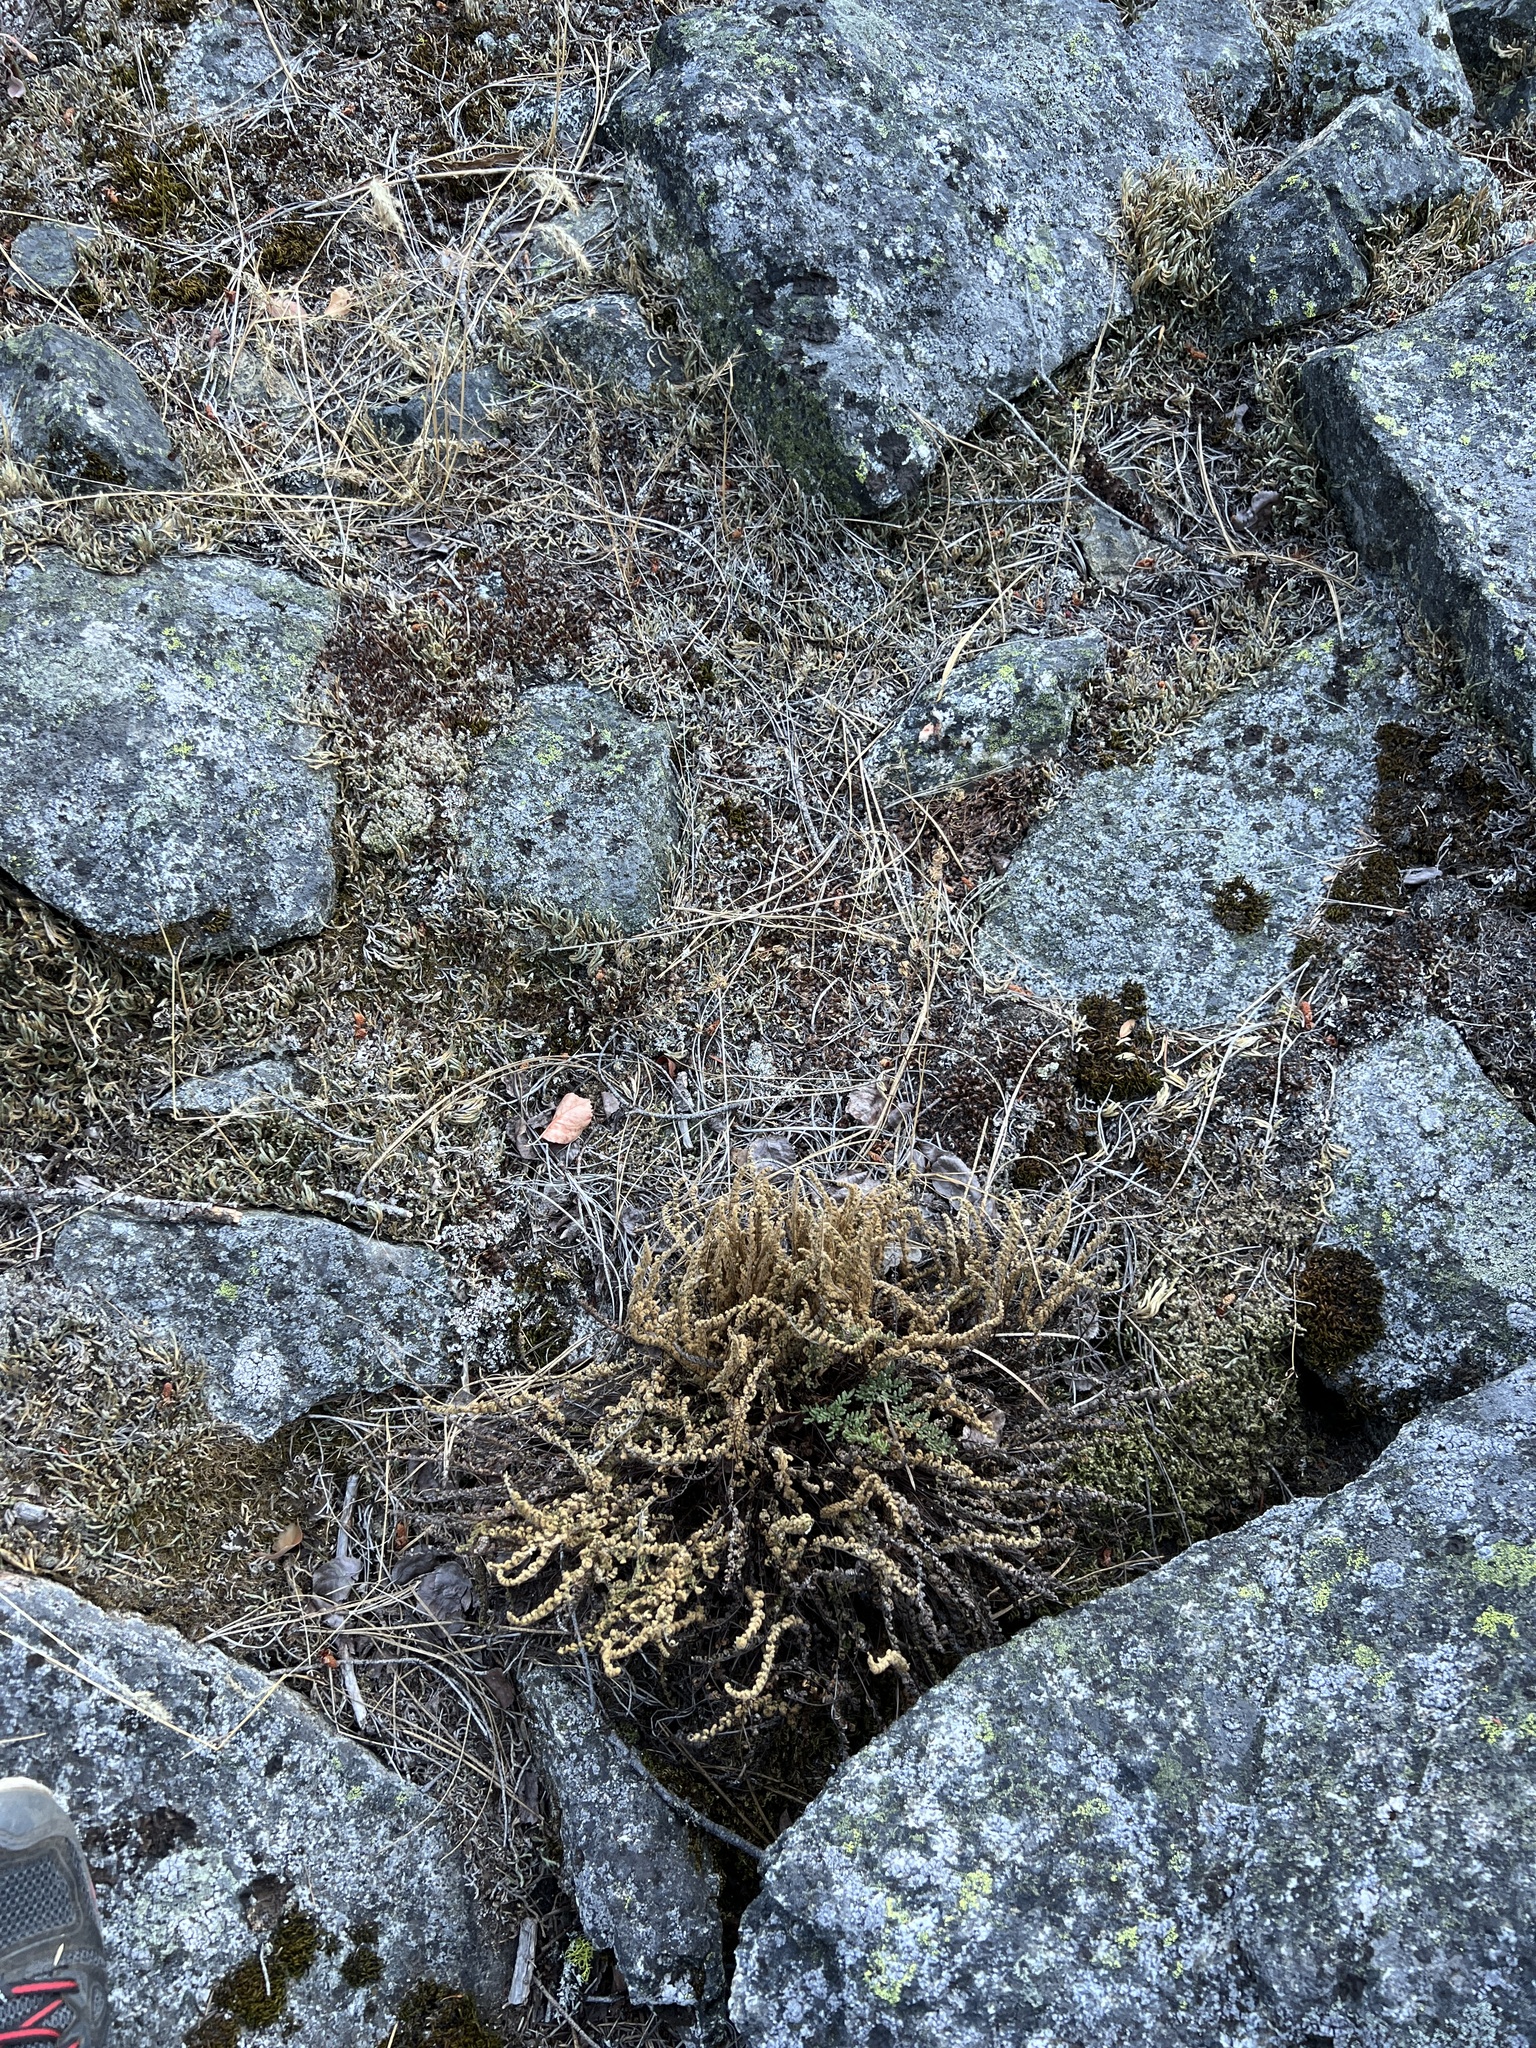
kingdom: Plantae
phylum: Tracheophyta
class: Polypodiopsida
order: Polypodiales
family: Pteridaceae
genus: Myriopteris
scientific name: Myriopteris gracillima
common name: Lace fern
